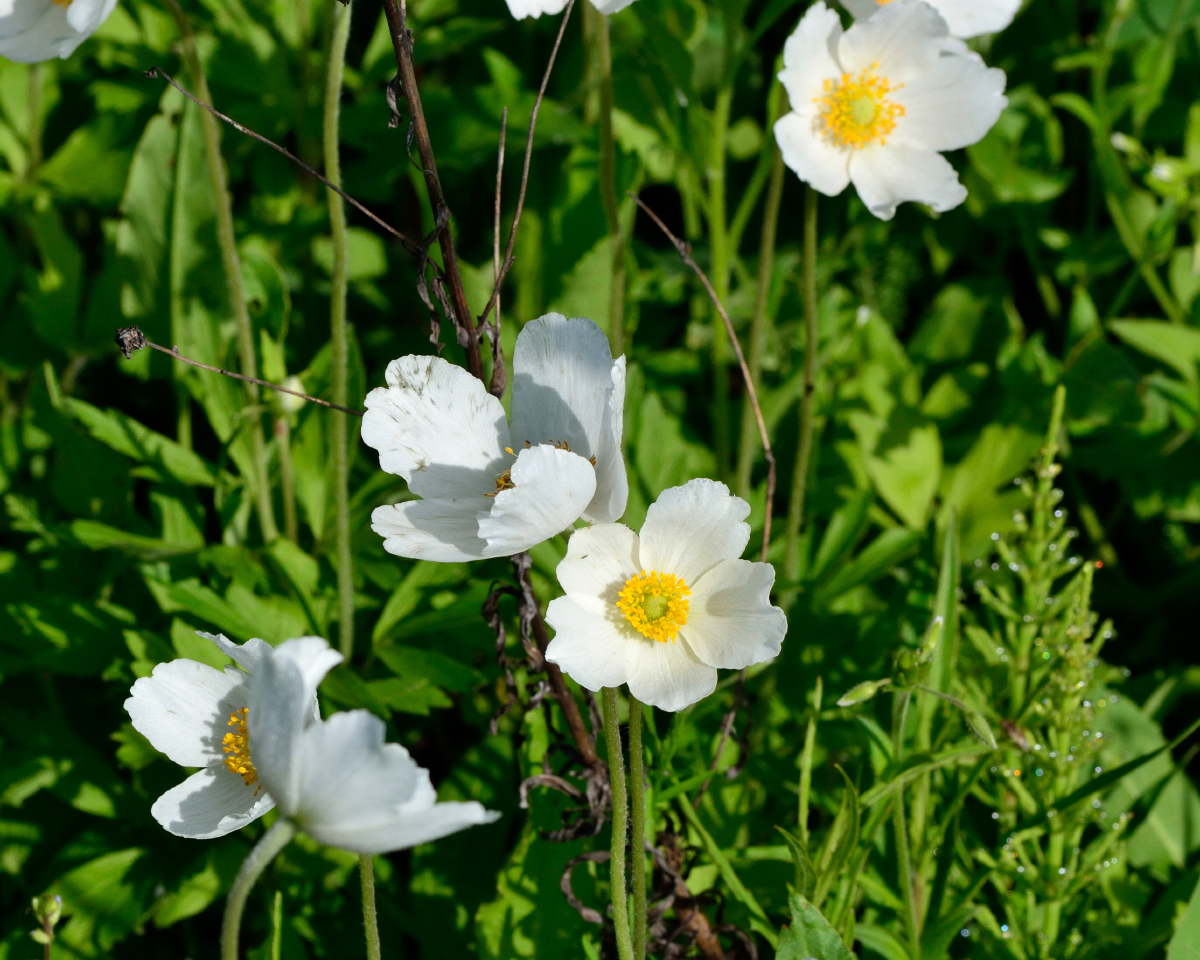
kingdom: Plantae
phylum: Tracheophyta
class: Magnoliopsida
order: Ranunculales
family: Ranunculaceae
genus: Anemone
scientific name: Anemone sylvestris
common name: Snowdrop anemone
